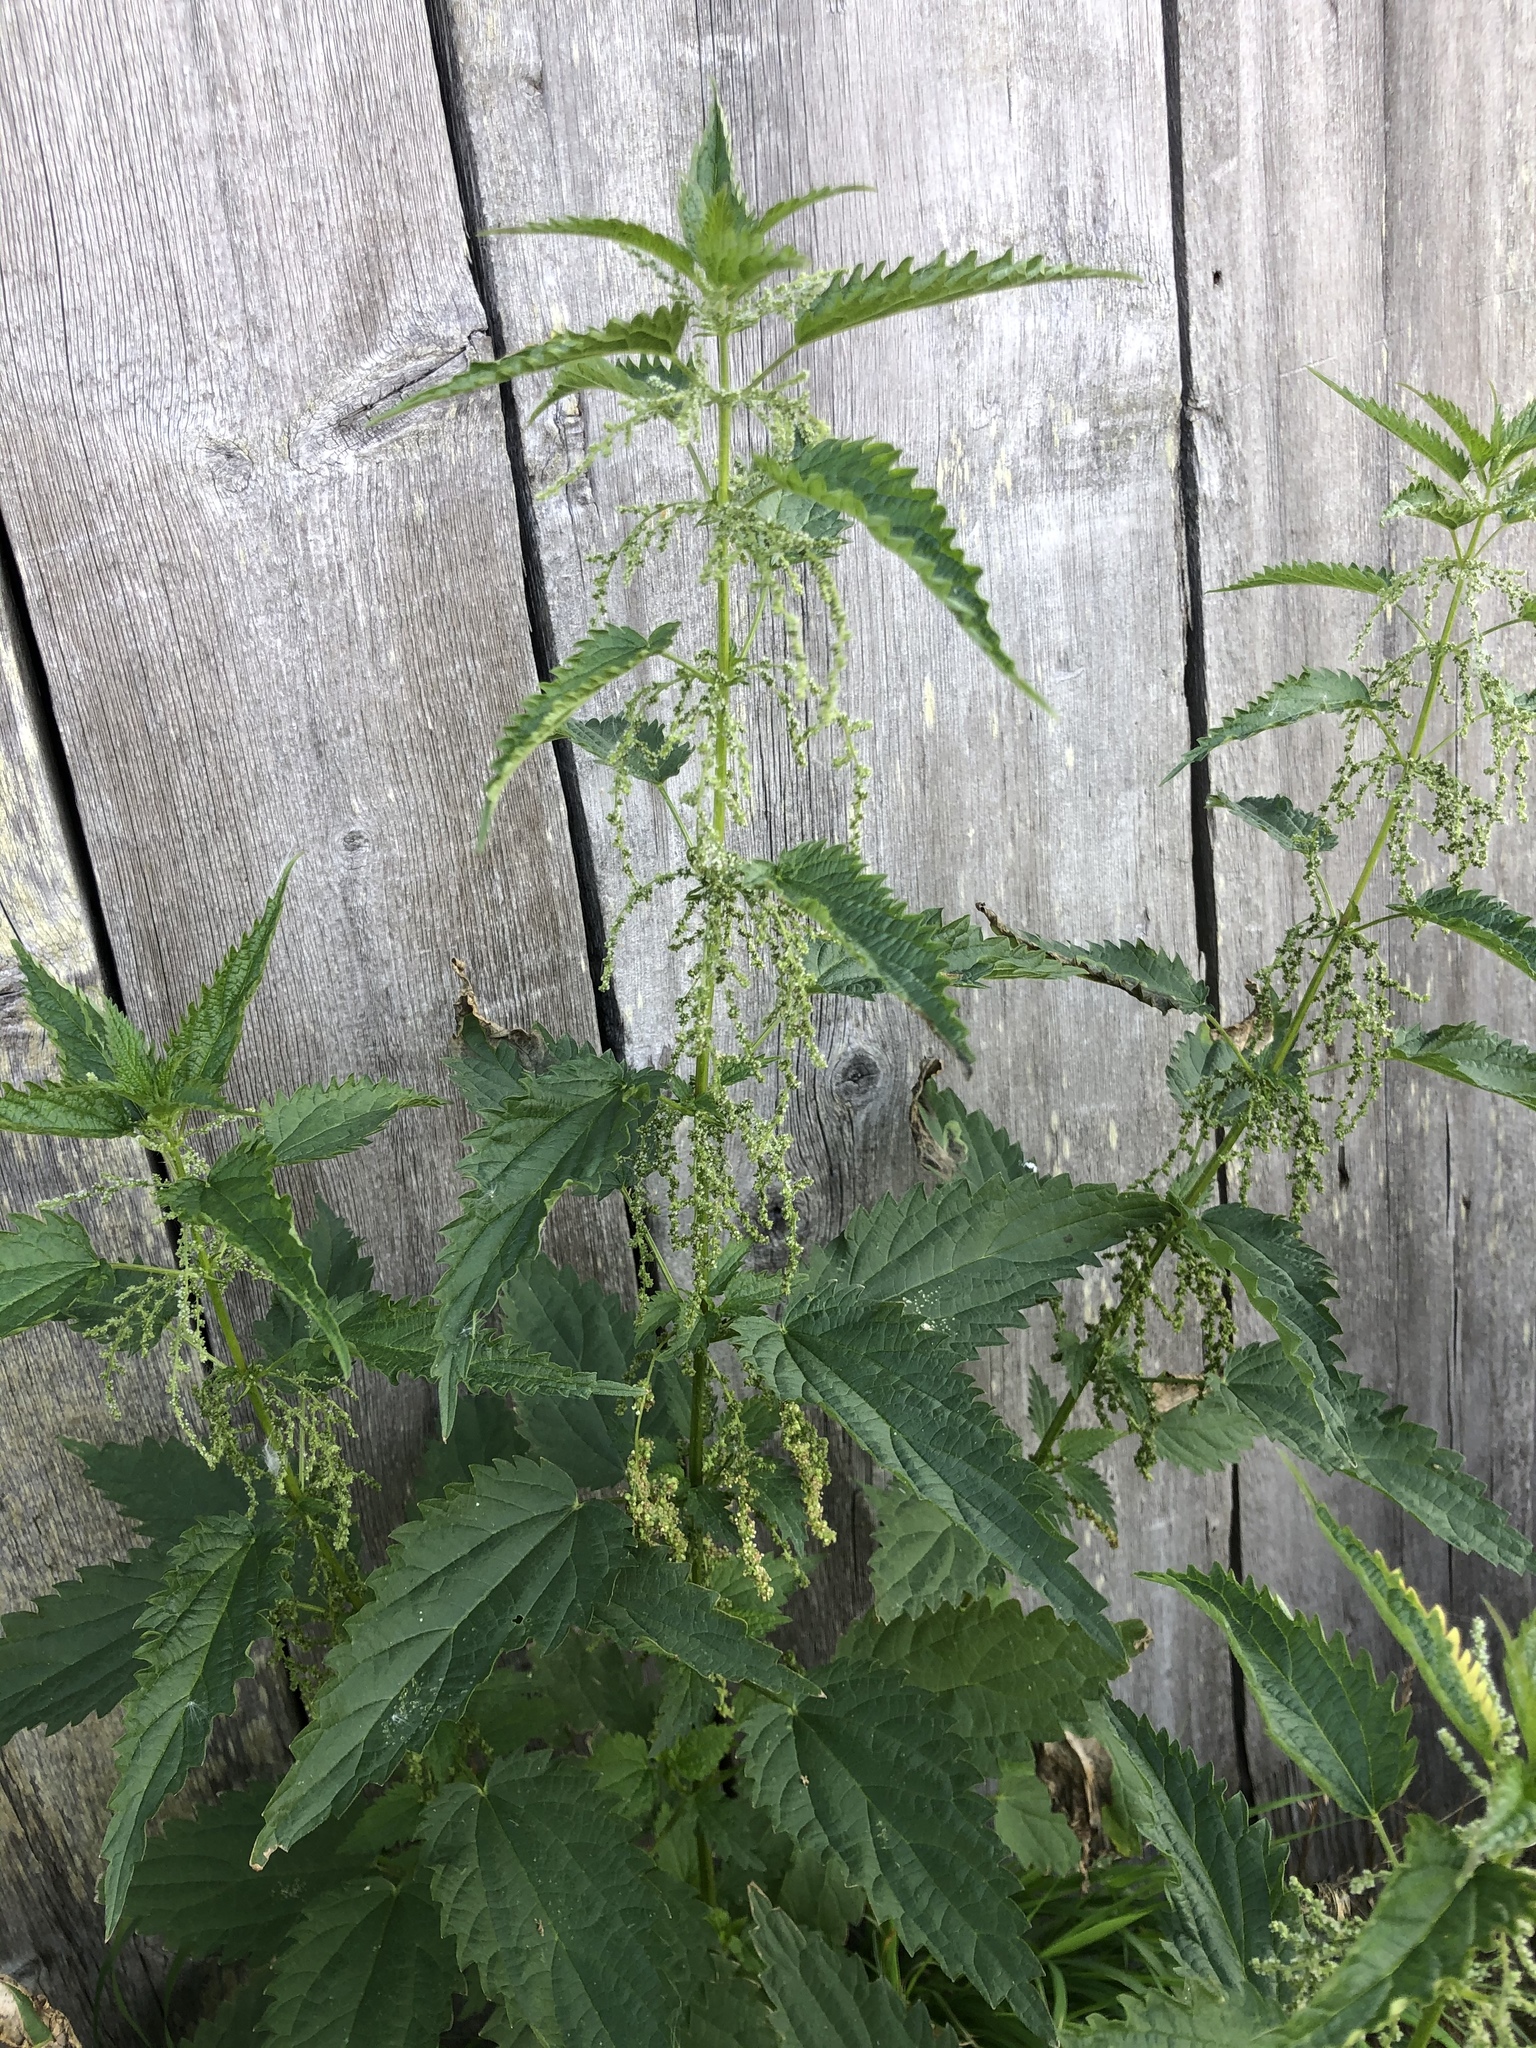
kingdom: Plantae
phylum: Tracheophyta
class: Magnoliopsida
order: Rosales
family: Urticaceae
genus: Urtica
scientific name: Urtica dioica
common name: Common nettle
